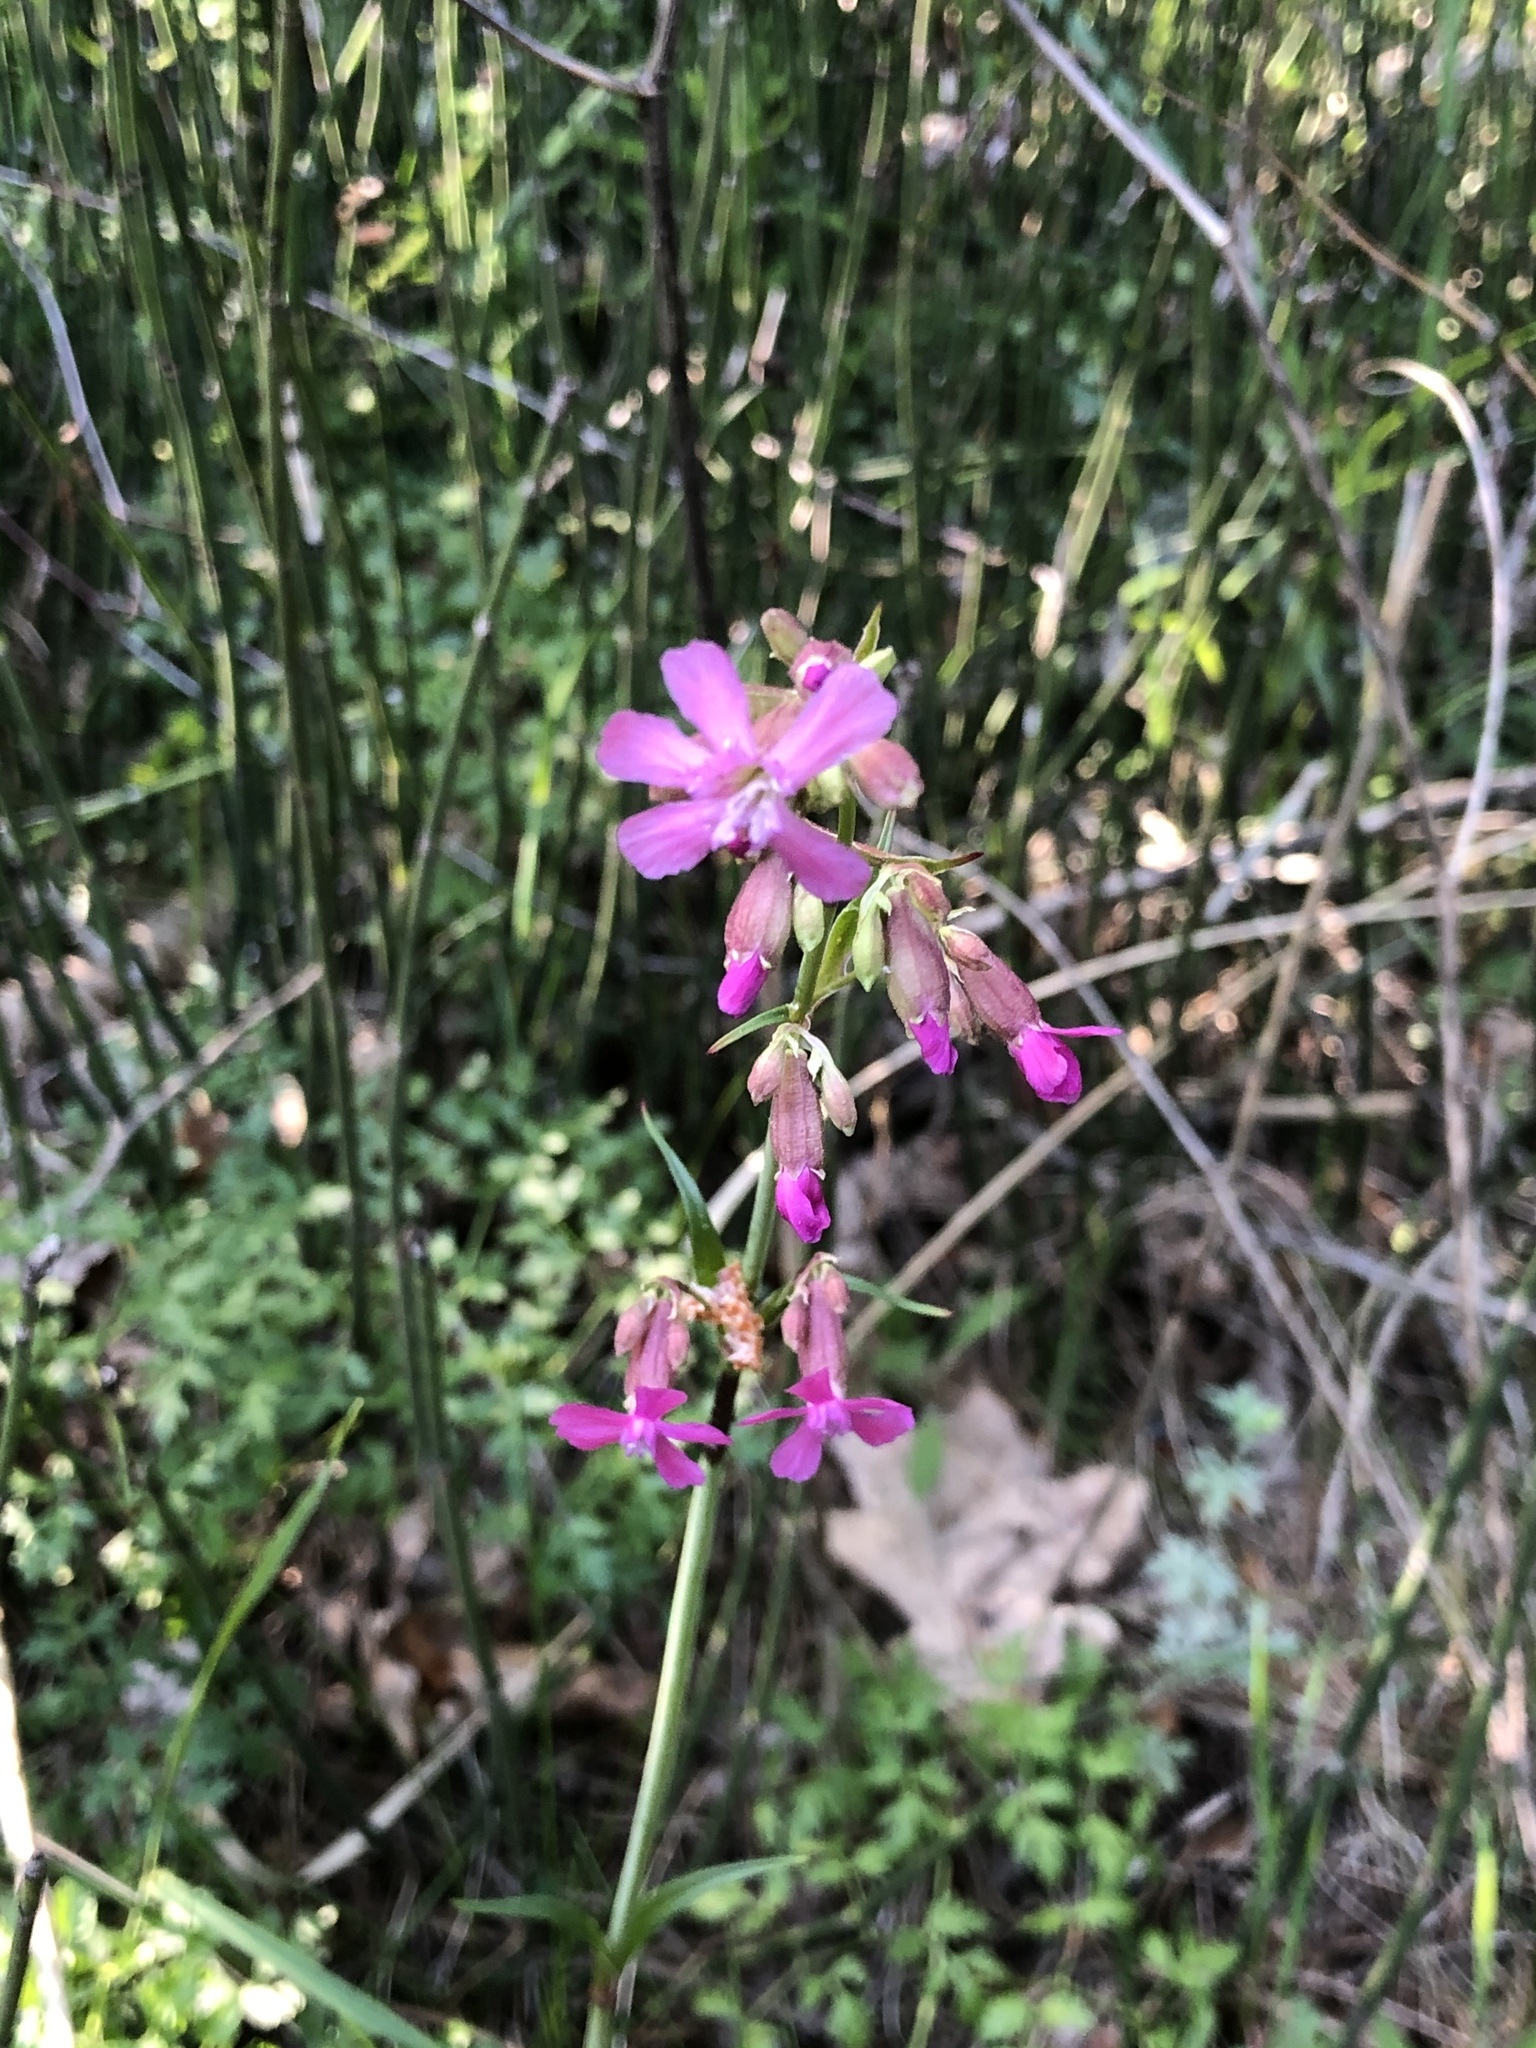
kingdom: Plantae
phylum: Tracheophyta
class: Magnoliopsida
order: Caryophyllales
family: Caryophyllaceae
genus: Viscaria
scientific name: Viscaria vulgaris
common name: Clammy campion
